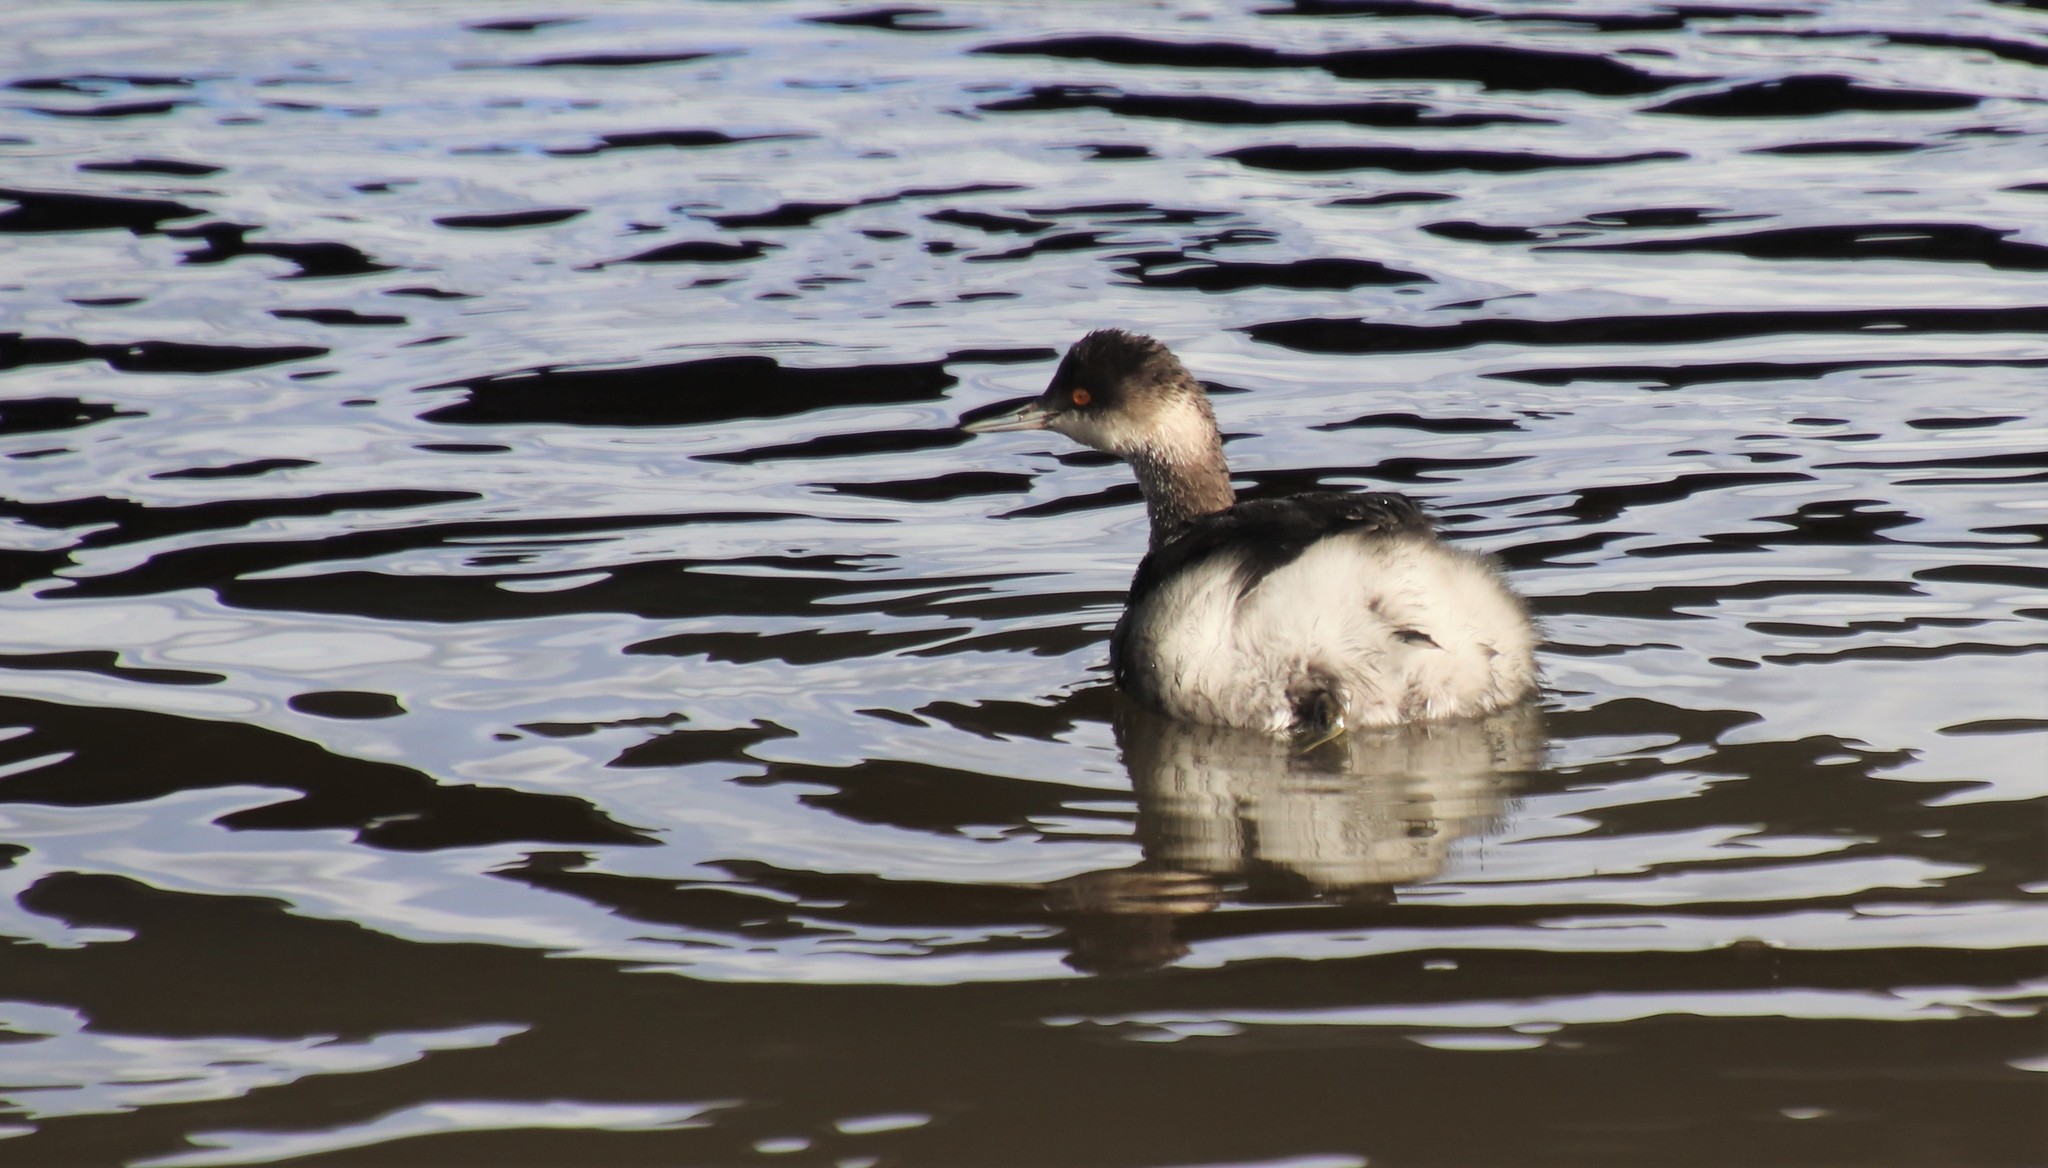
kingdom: Animalia
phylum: Chordata
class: Aves
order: Podicipediformes
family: Podicipedidae
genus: Podiceps
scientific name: Podiceps nigricollis
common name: Black-necked grebe
